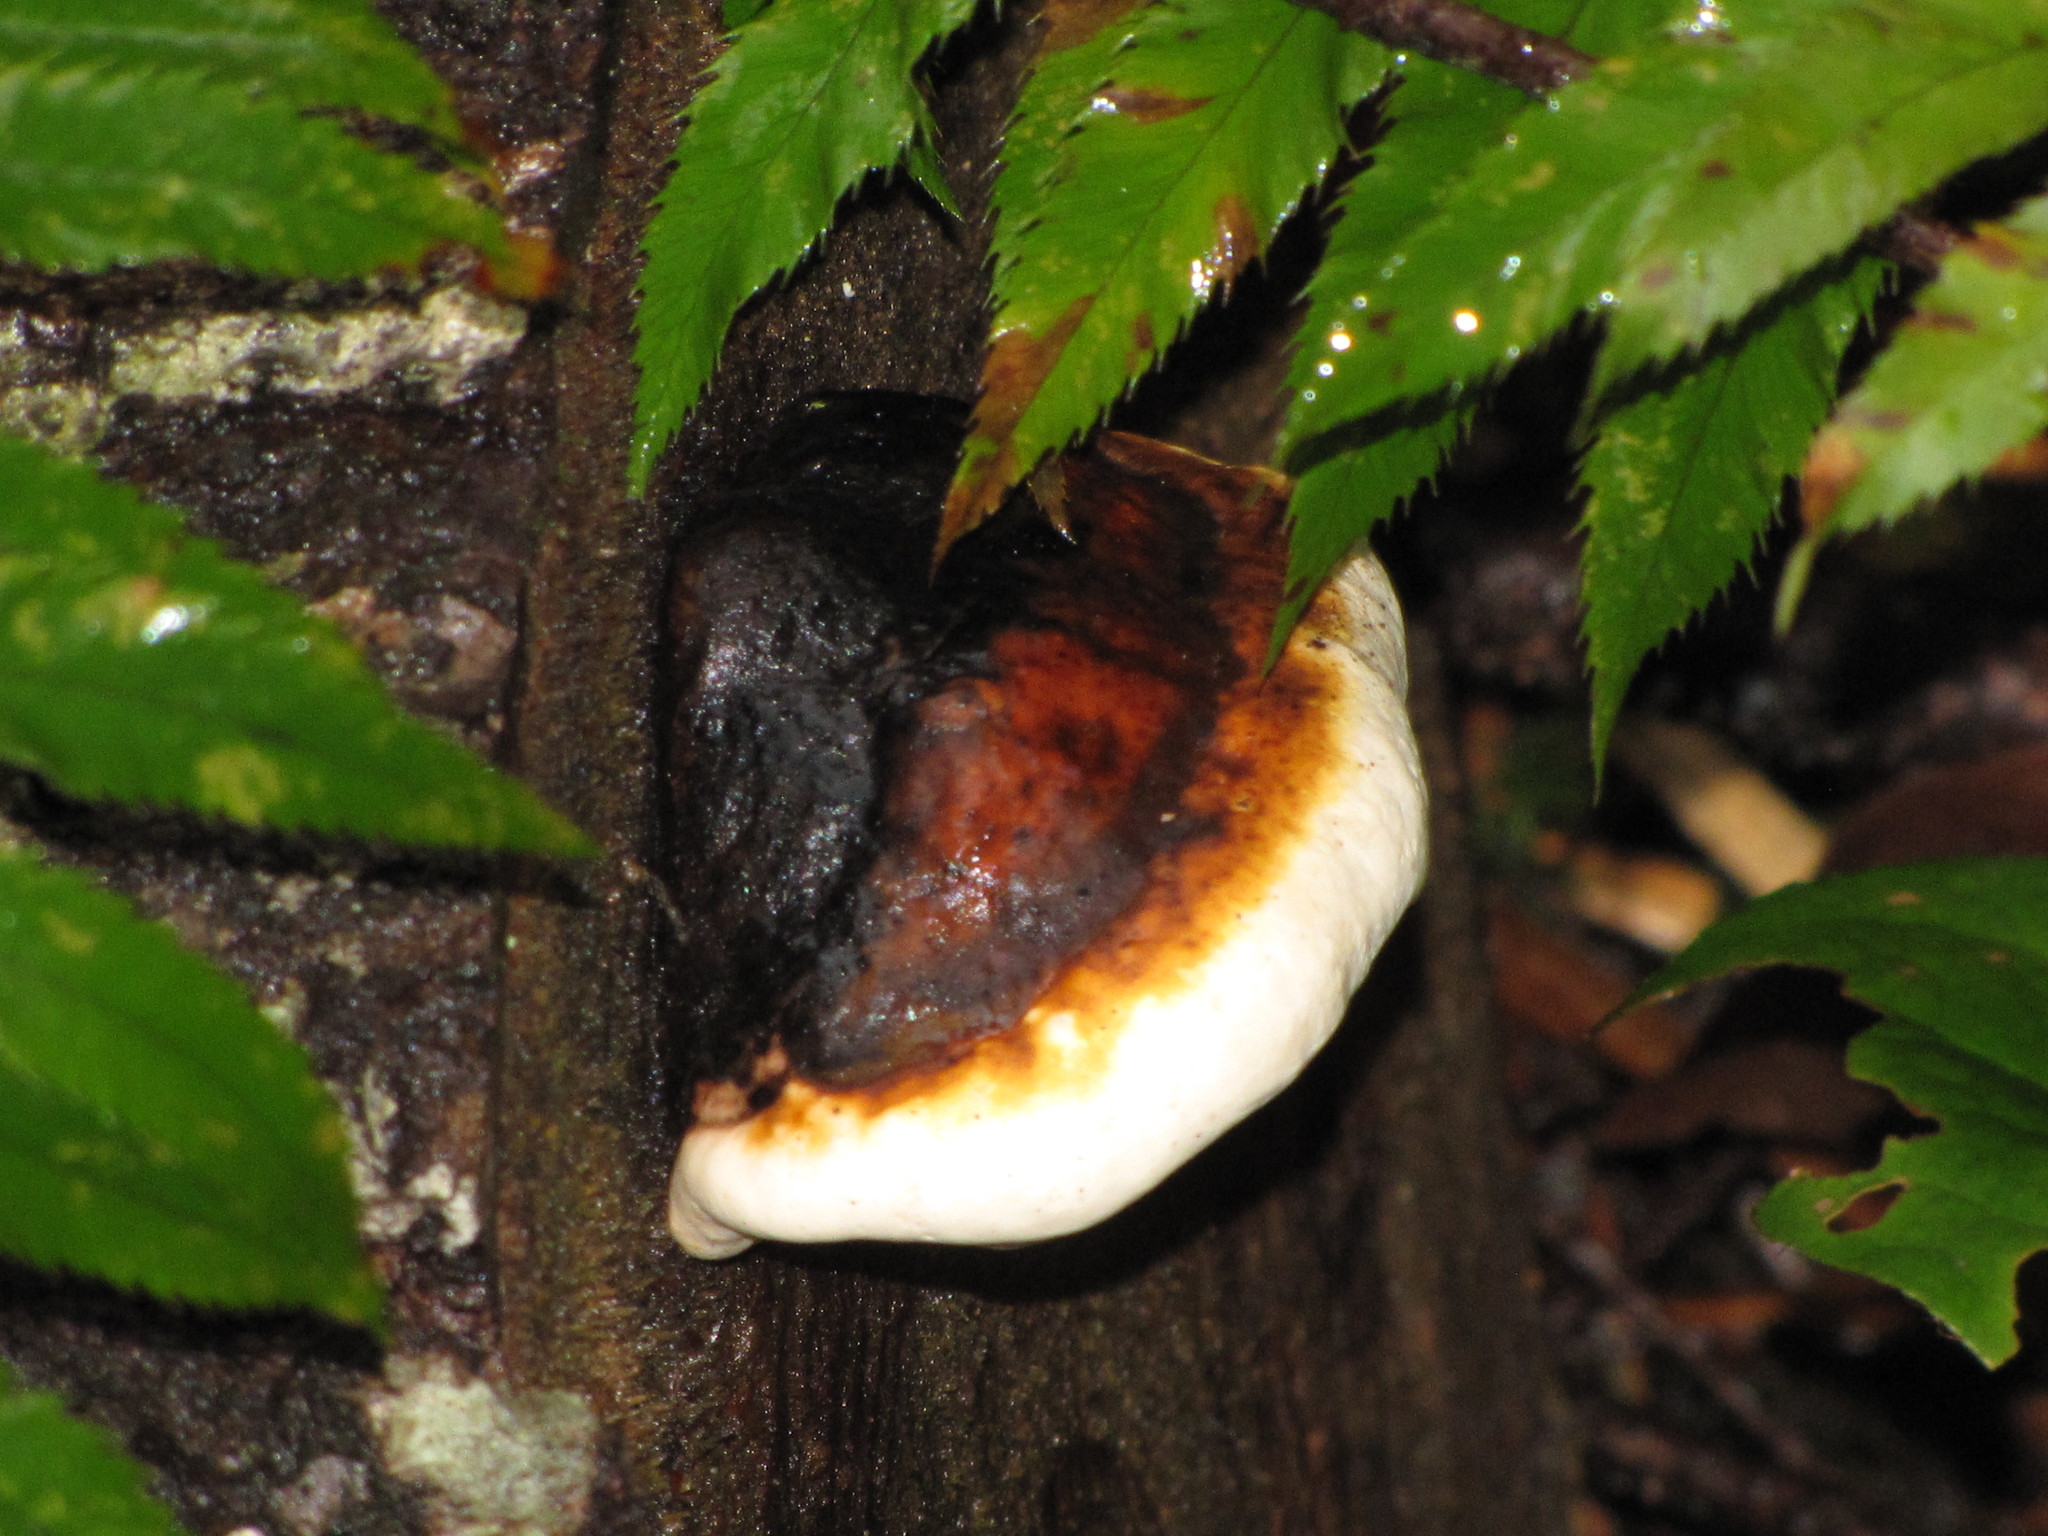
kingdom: Fungi
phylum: Basidiomycota
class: Agaricomycetes
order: Polyporales
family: Fomitopsidaceae
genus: Fomitopsis
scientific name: Fomitopsis mounceae
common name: Northern red belt
